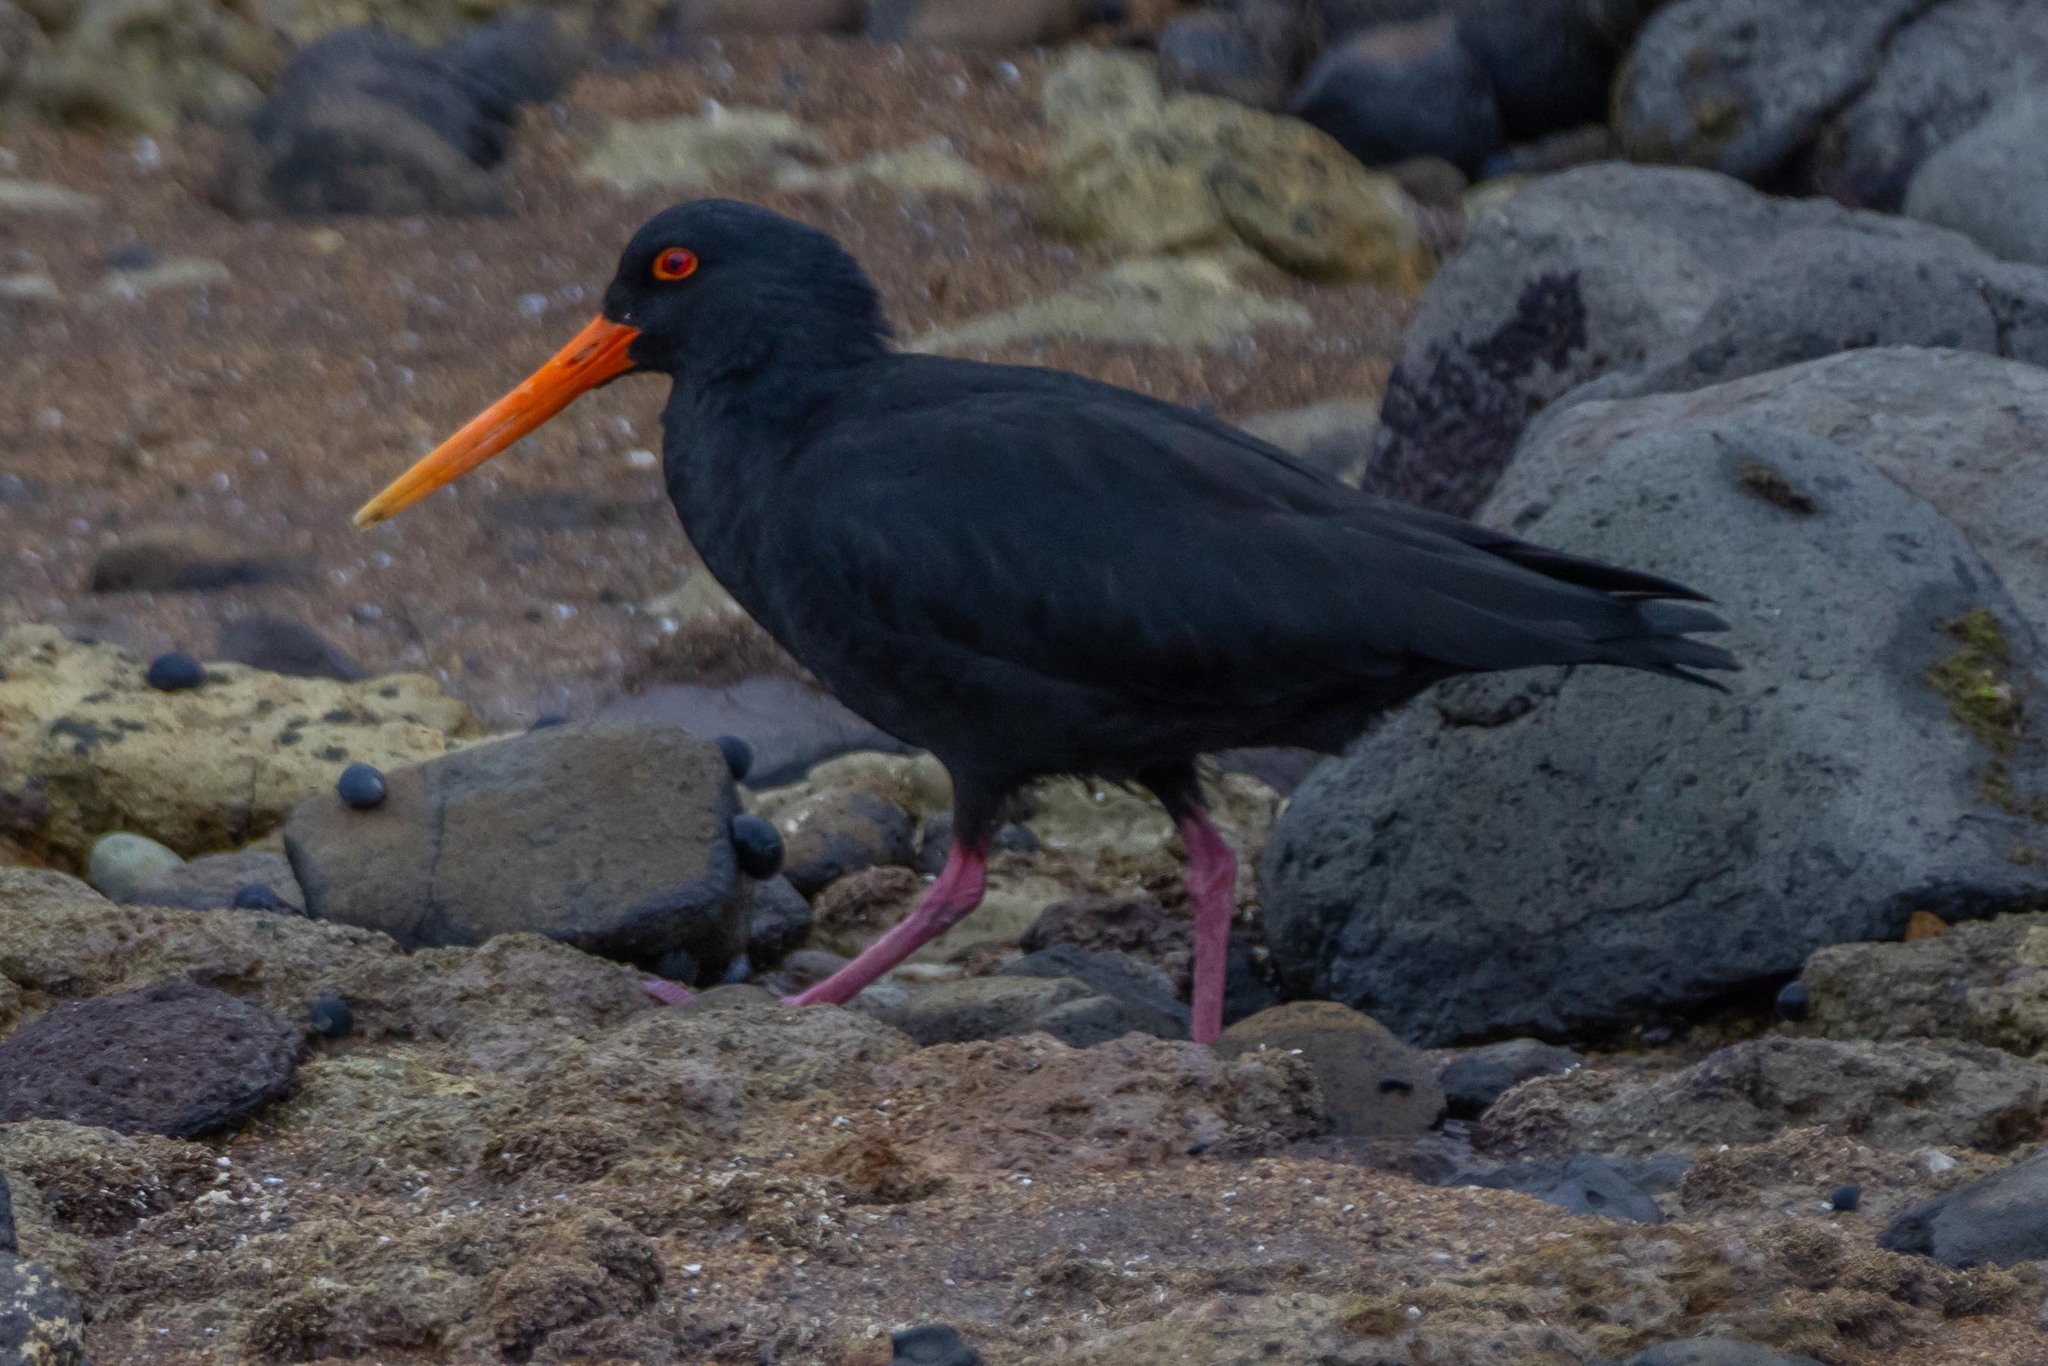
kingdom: Animalia
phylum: Chordata
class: Aves
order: Charadriiformes
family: Haematopodidae
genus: Haematopus
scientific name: Haematopus unicolor
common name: Variable oystercatcher
